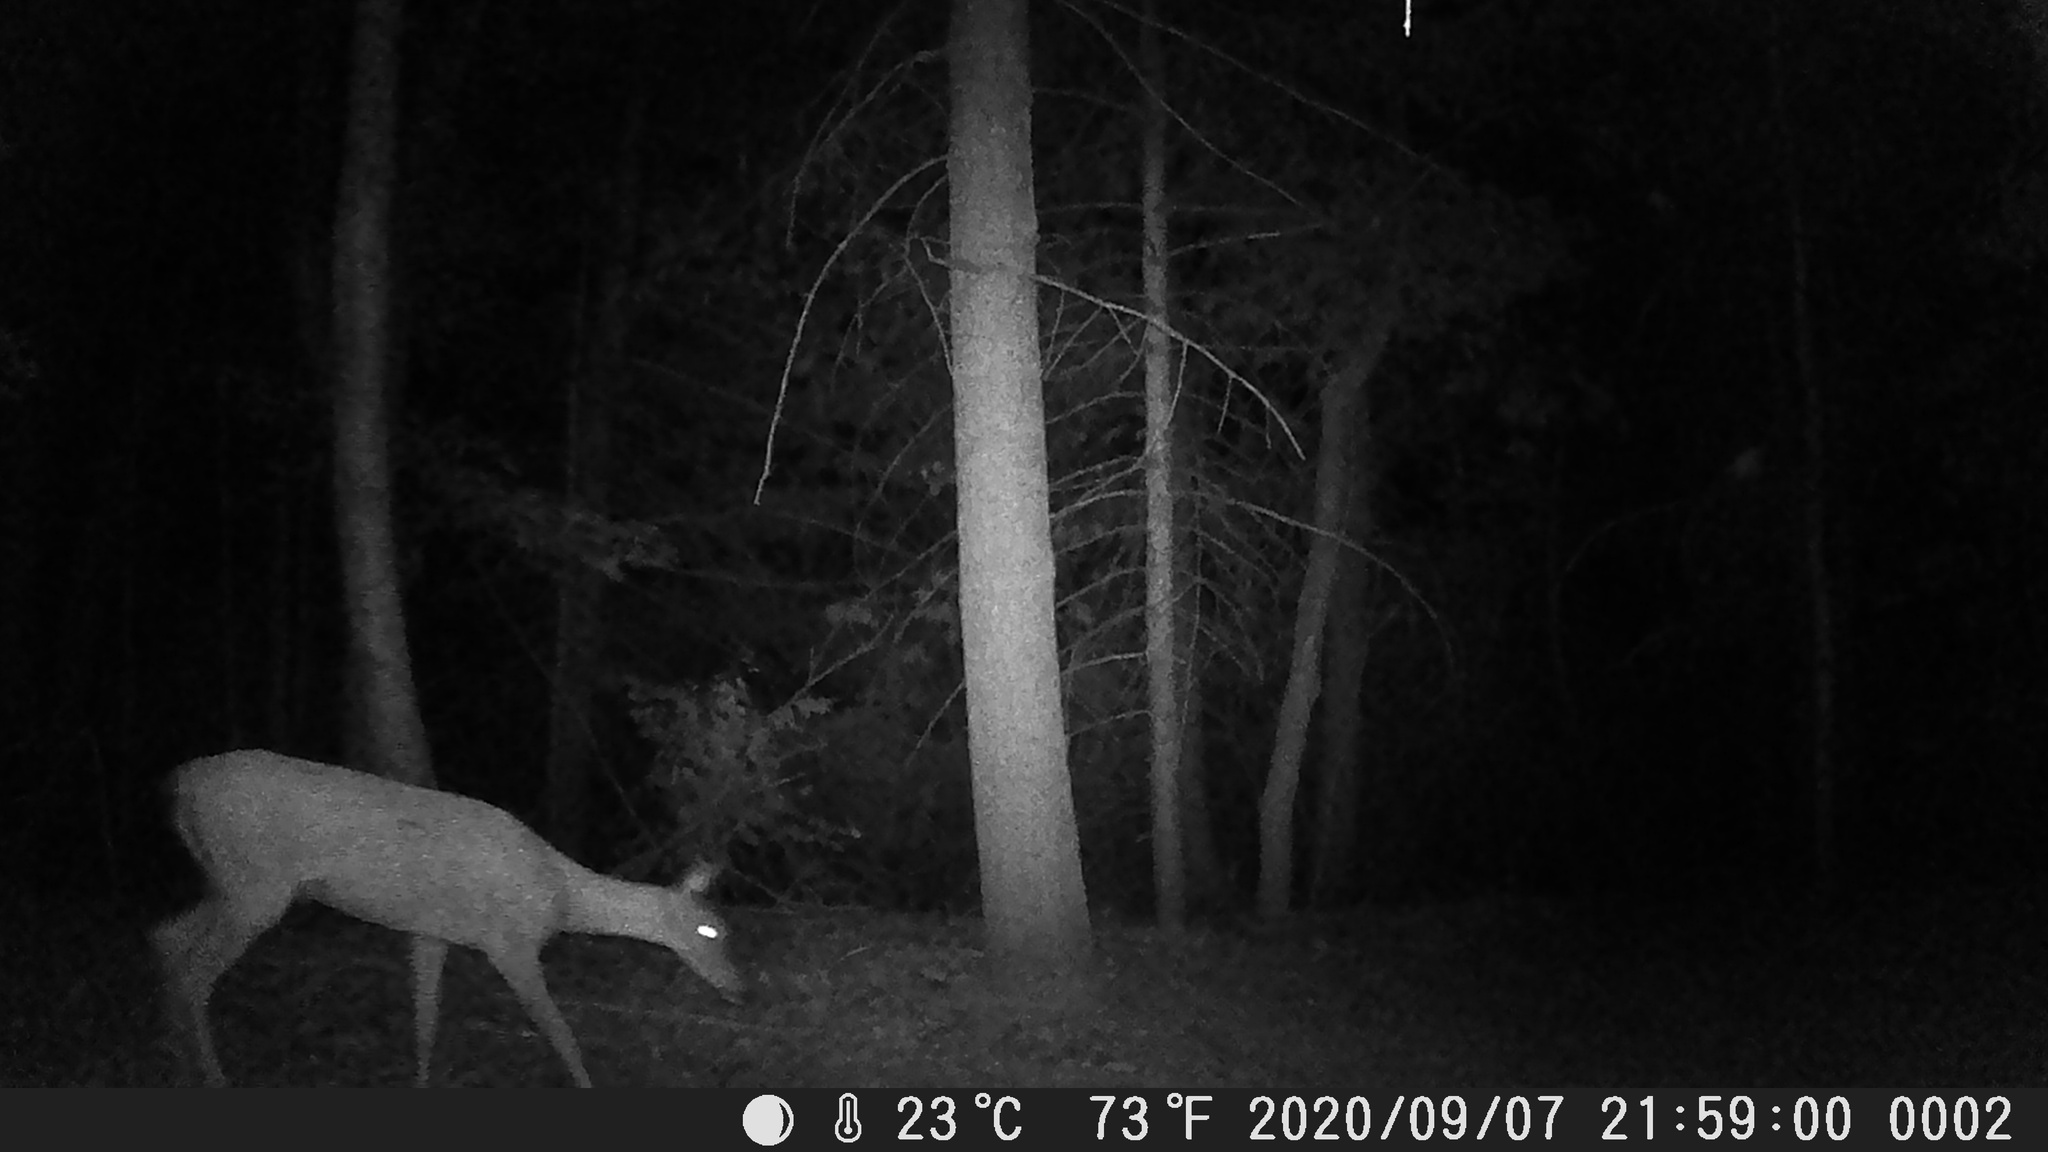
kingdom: Animalia
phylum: Chordata
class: Mammalia
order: Artiodactyla
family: Cervidae
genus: Odocoileus
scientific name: Odocoileus virginianus
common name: White-tailed deer
